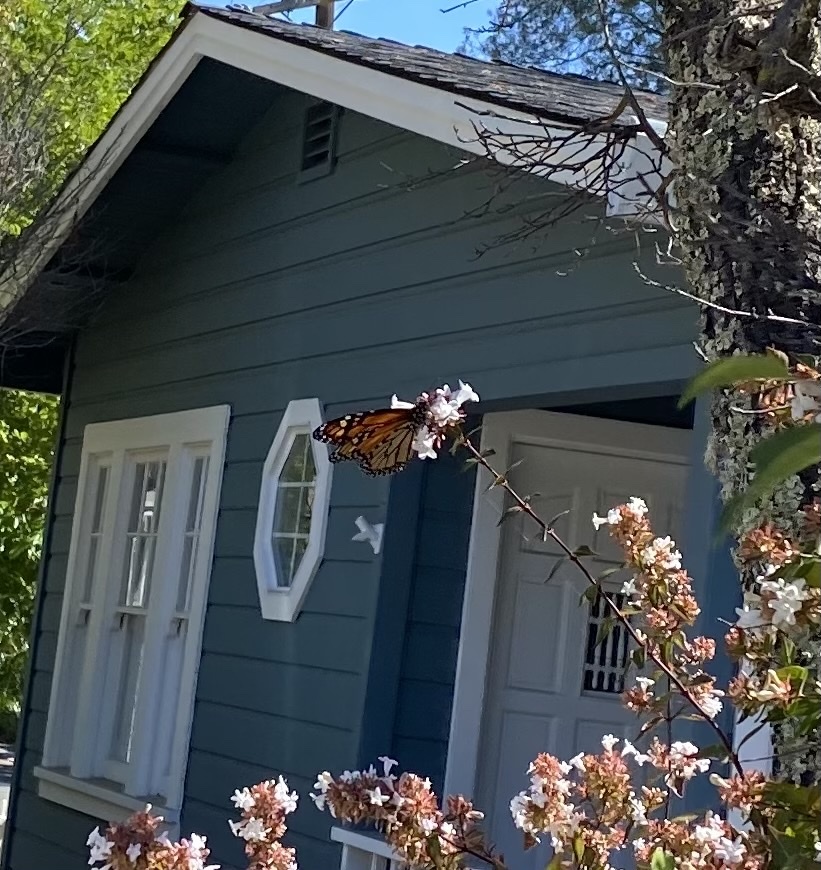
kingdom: Animalia
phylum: Arthropoda
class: Insecta
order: Lepidoptera
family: Nymphalidae
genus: Danaus
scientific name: Danaus plexippus
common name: Monarch
